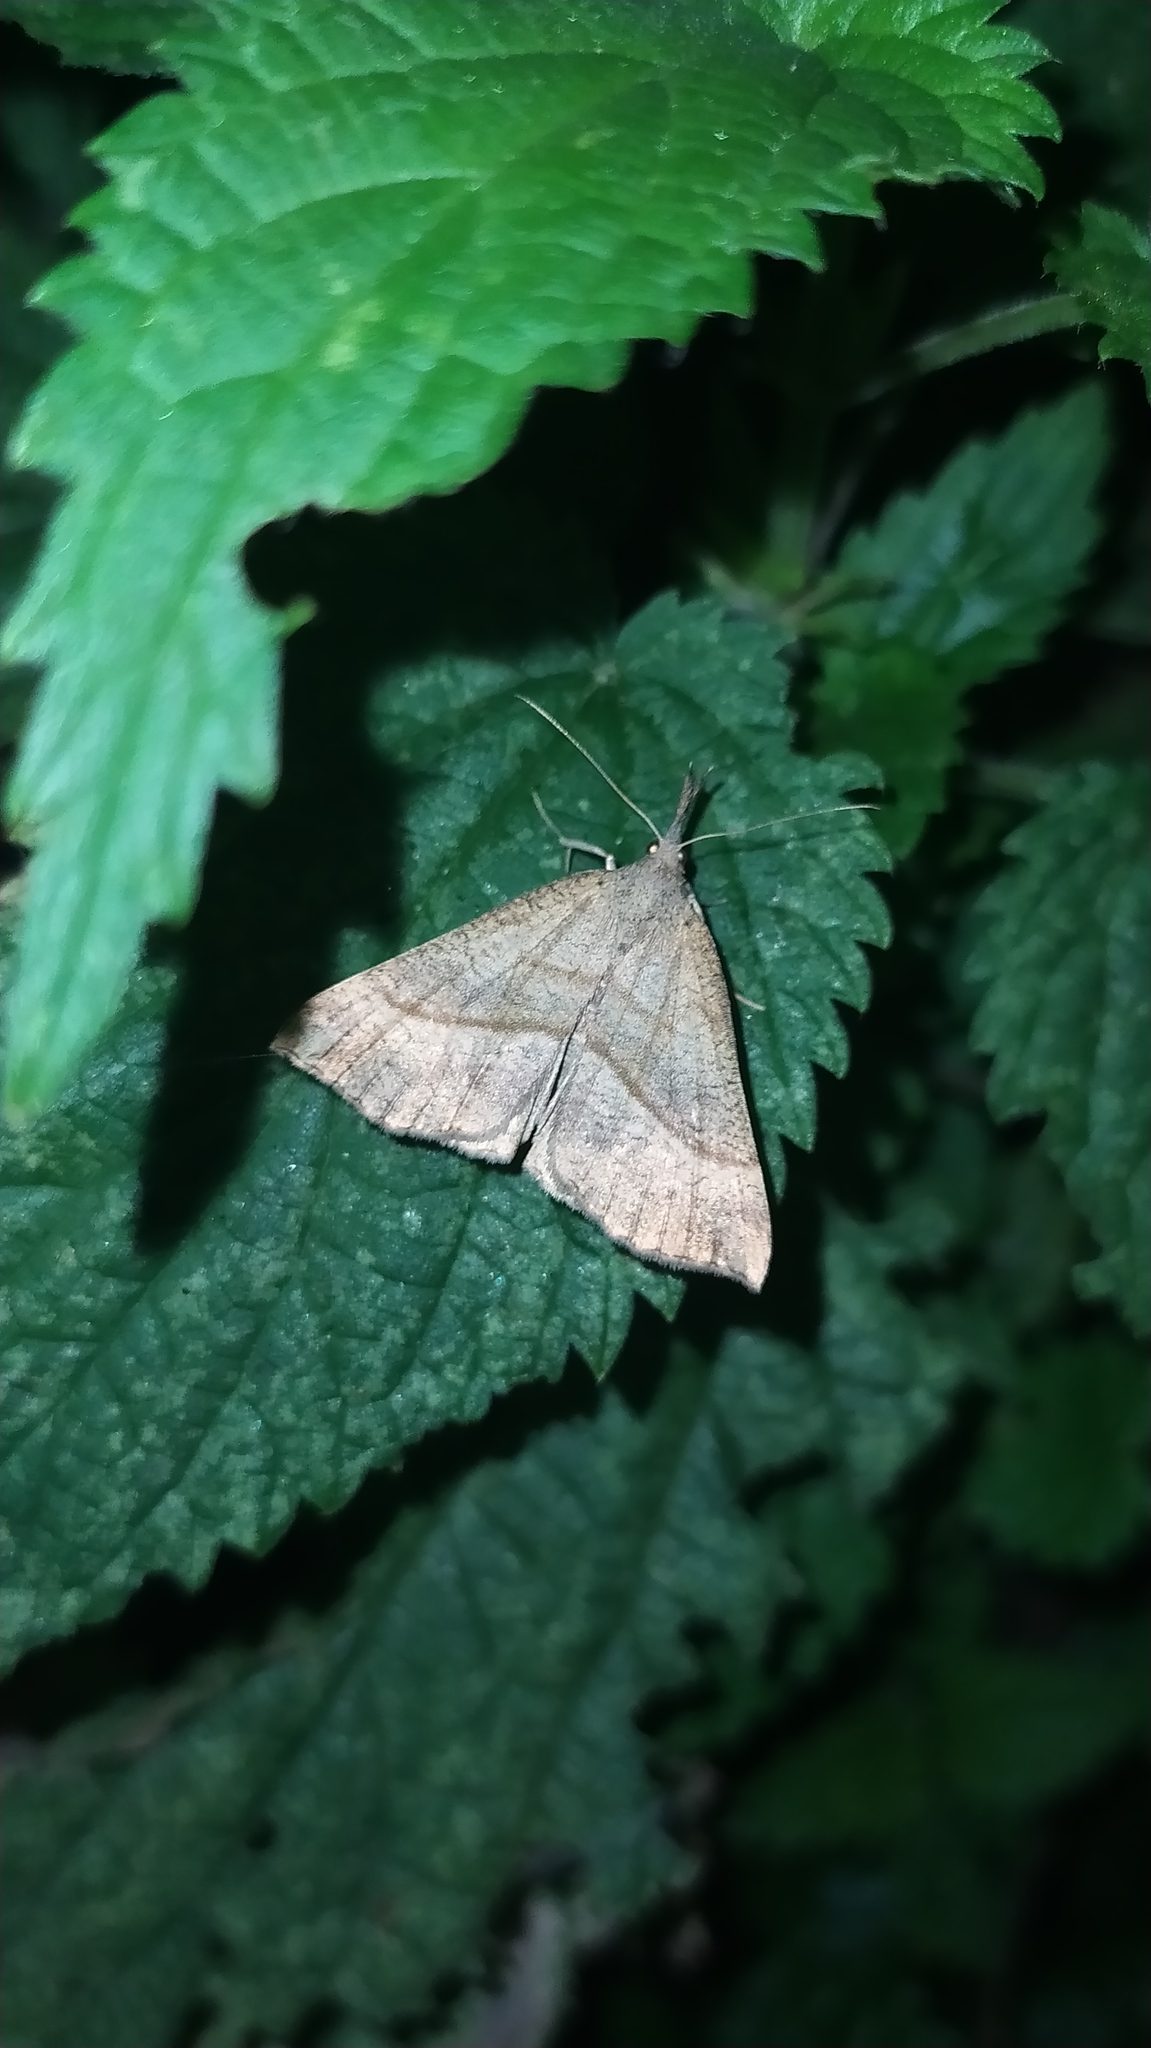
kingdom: Animalia
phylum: Arthropoda
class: Insecta
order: Lepidoptera
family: Erebidae
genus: Hypena
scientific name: Hypena proboscidalis
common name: Snout
